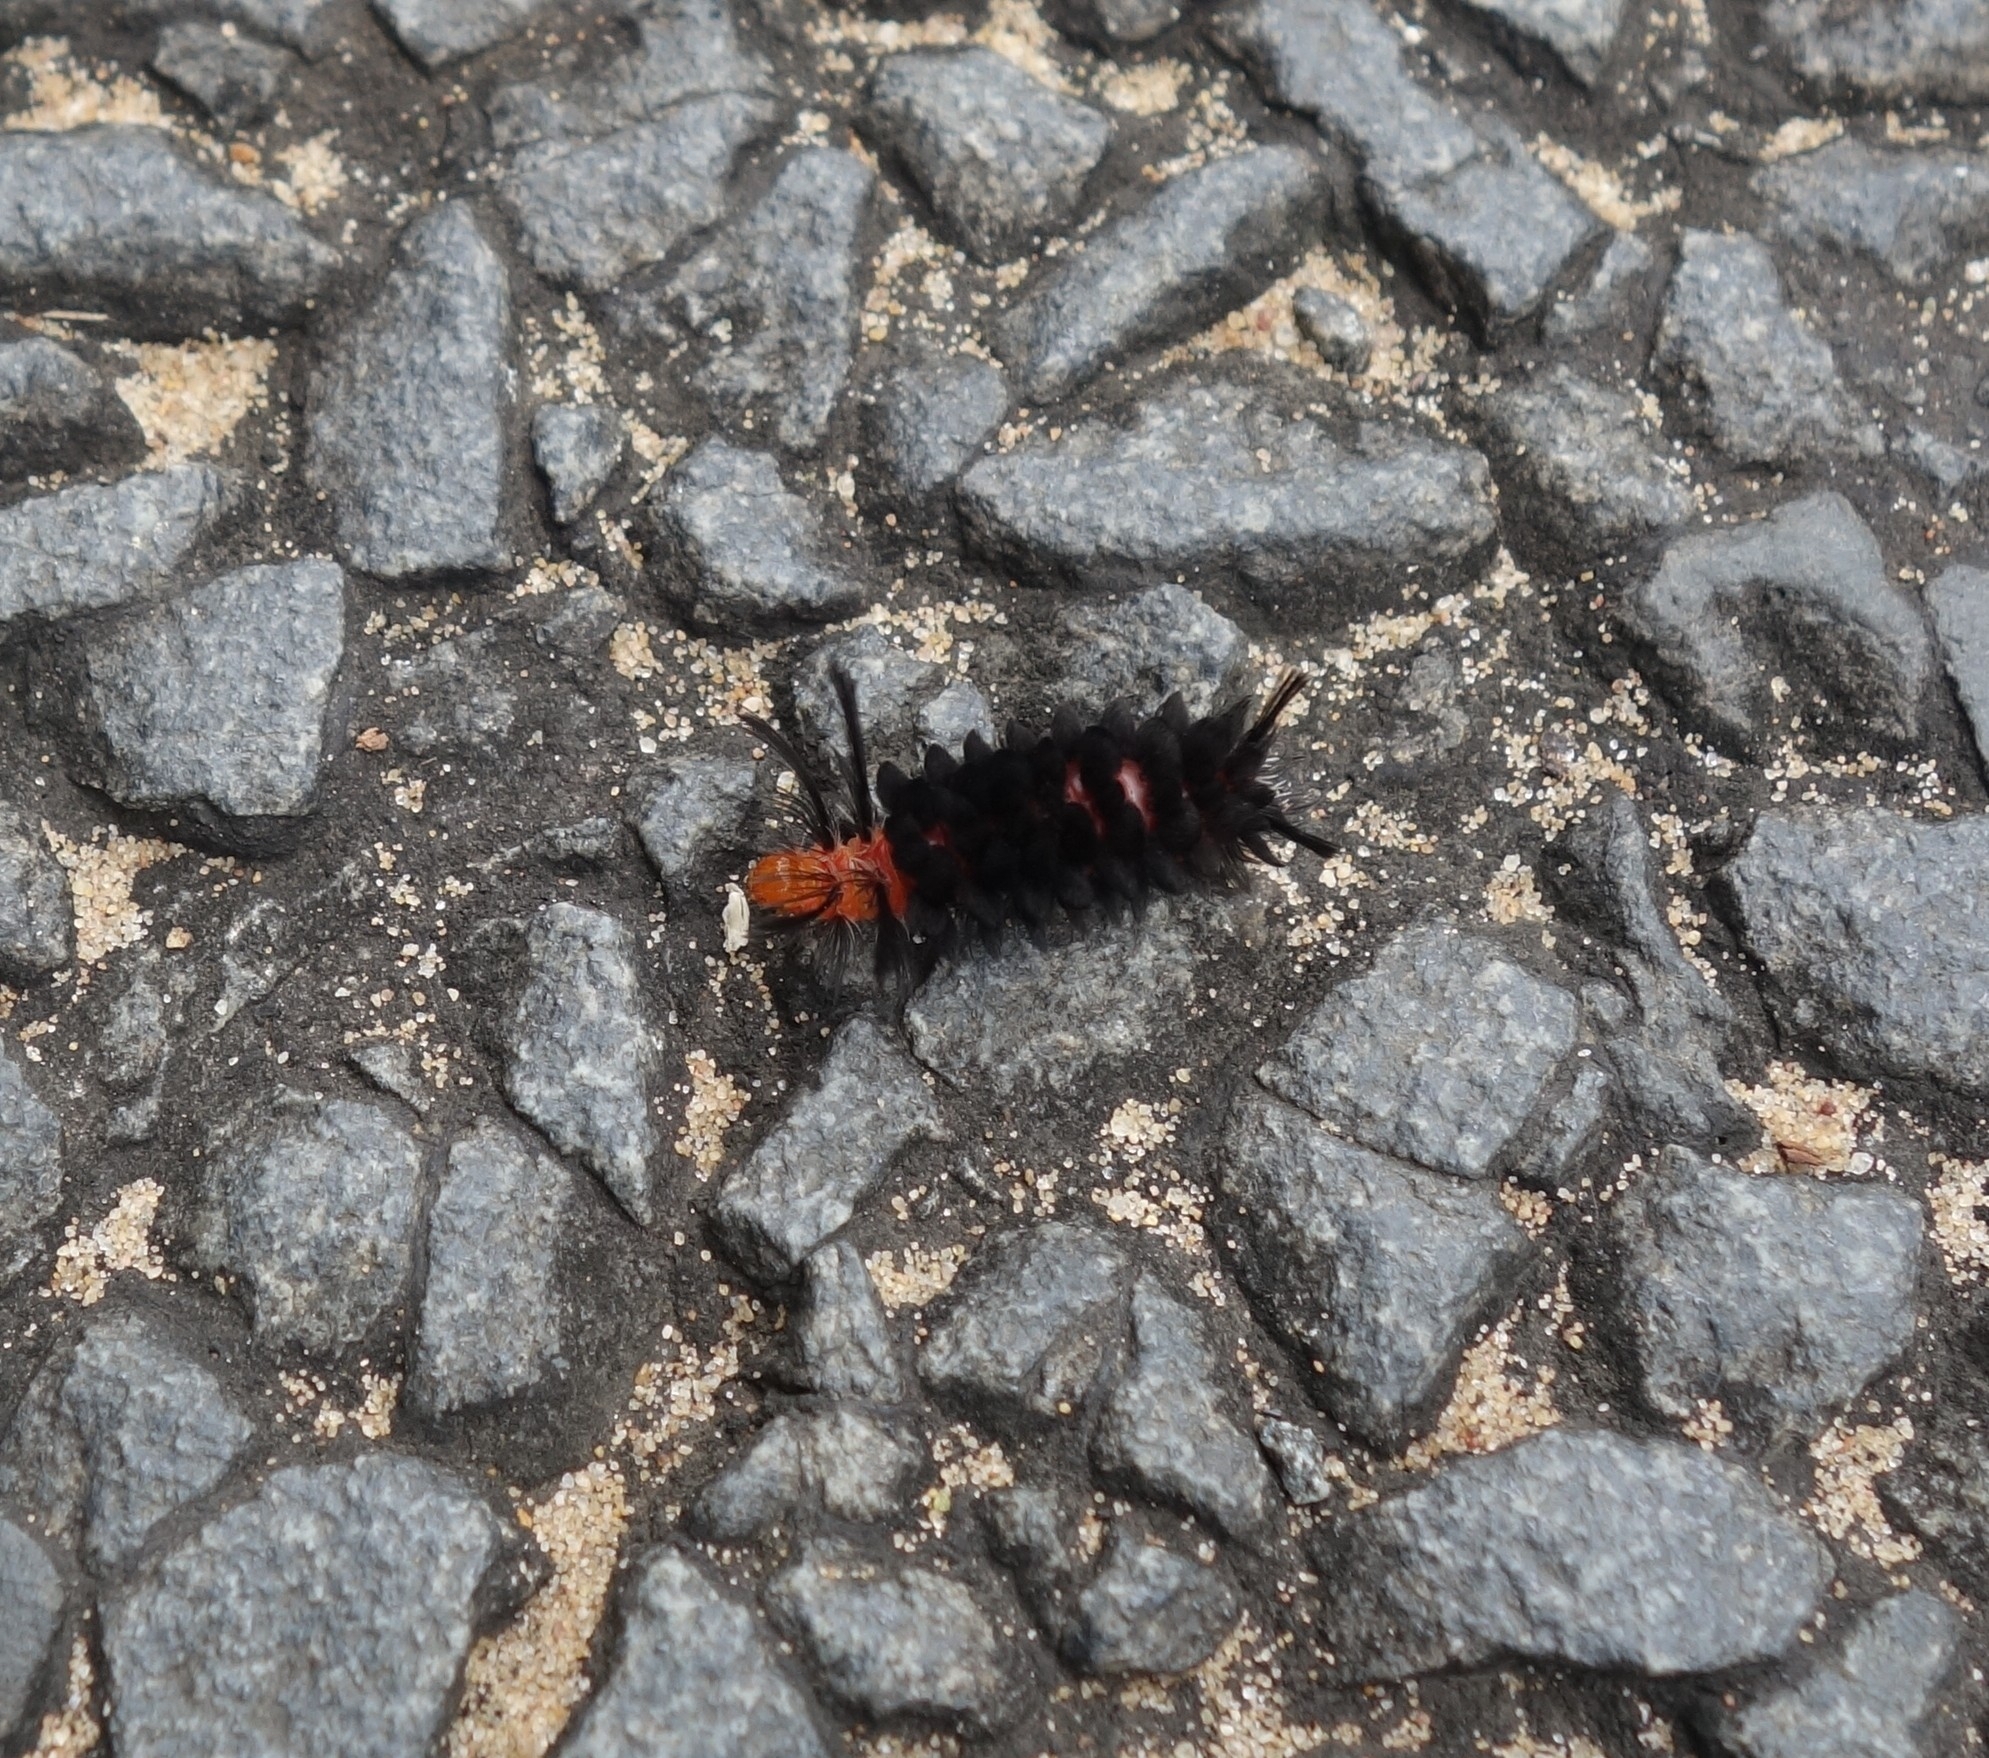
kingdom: Animalia
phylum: Arthropoda
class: Insecta
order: Lepidoptera
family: Erebidae
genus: Euchromia
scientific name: Euchromia amoena
